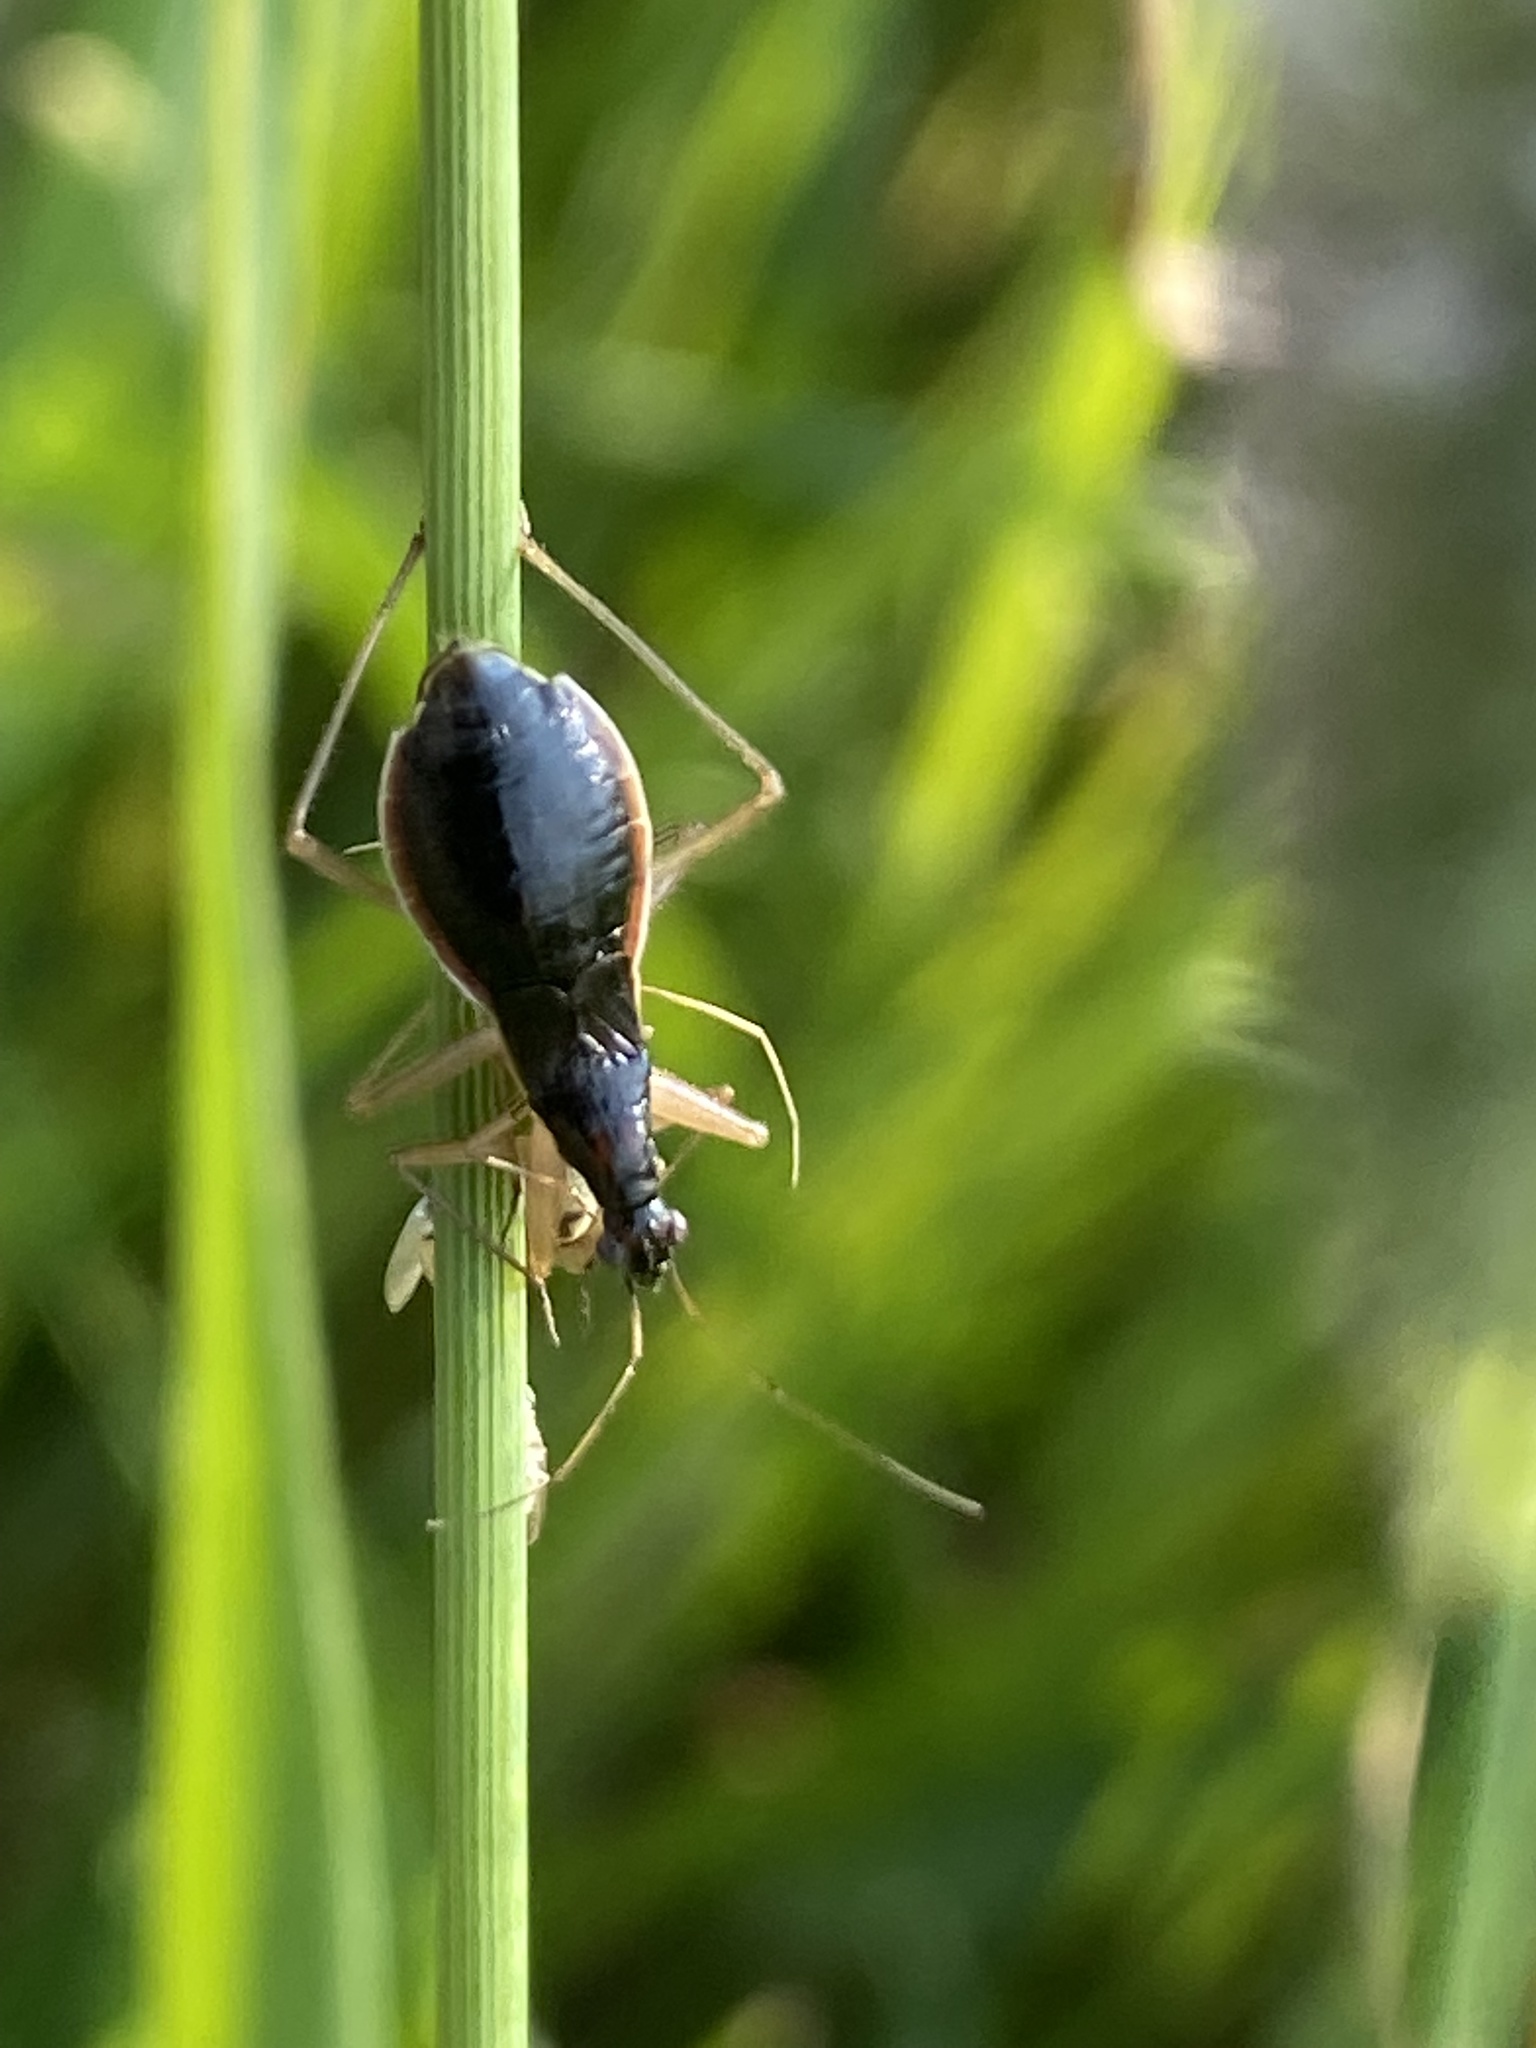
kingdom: Animalia
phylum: Arthropoda
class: Insecta
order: Hemiptera
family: Nabidae
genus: Nabis
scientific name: Nabis
